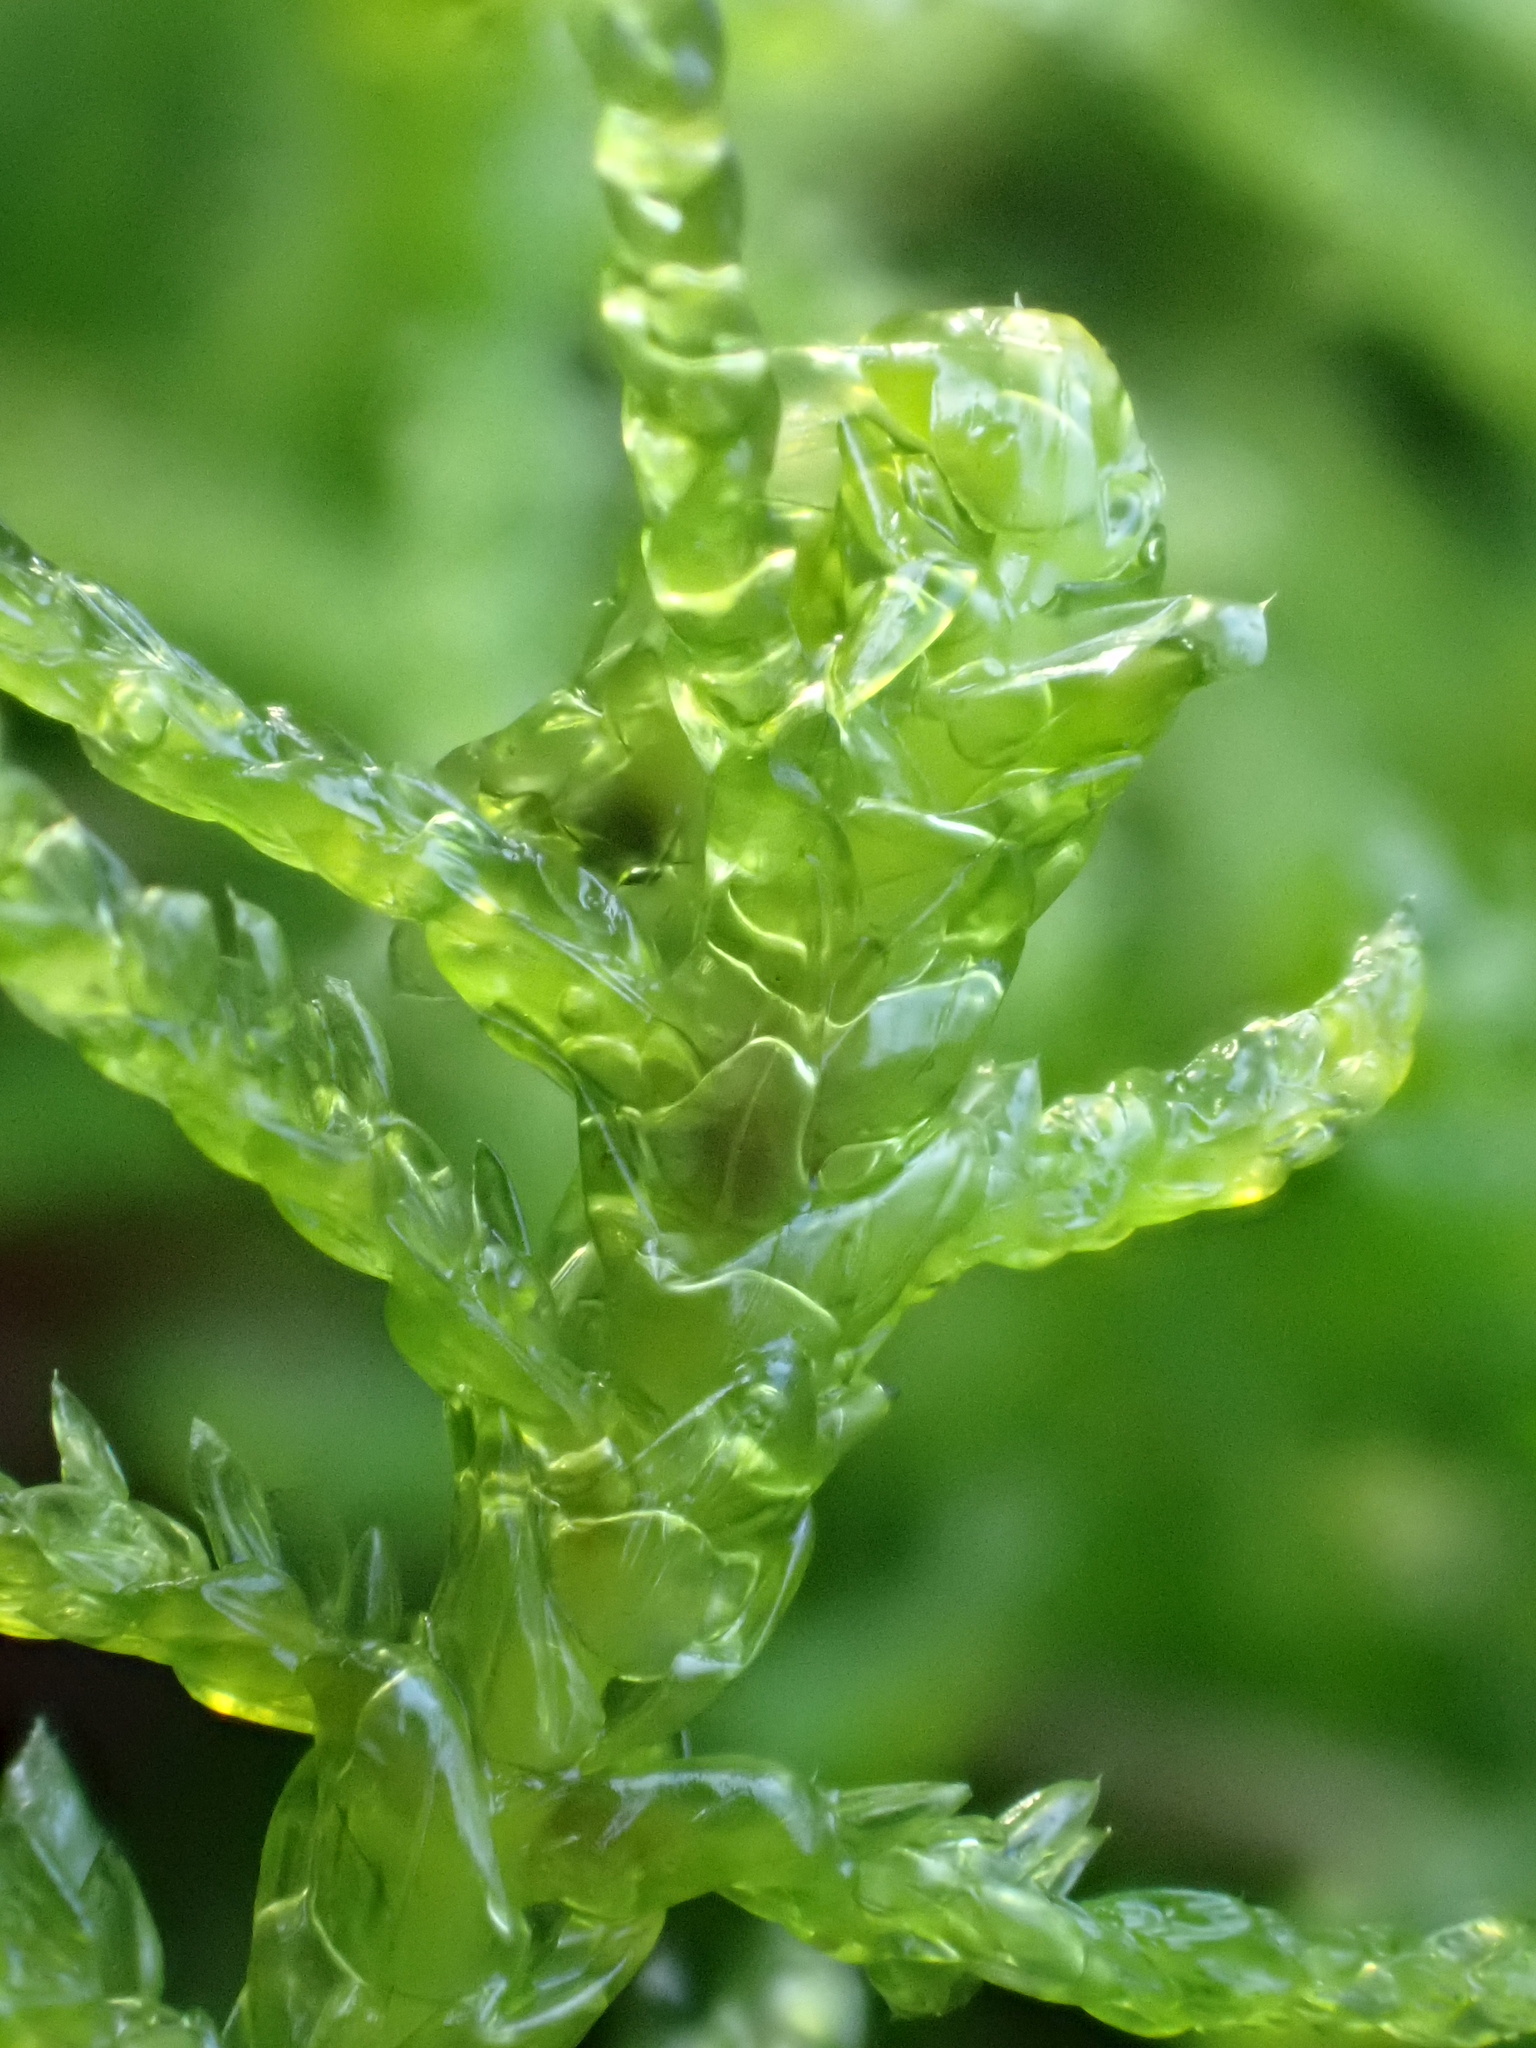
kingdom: Plantae
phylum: Bryophyta
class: Bryopsida
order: Hypnales
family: Brachytheciaceae
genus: Pseudoscleropodium
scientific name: Pseudoscleropodium purum
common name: Neat feather-moss
